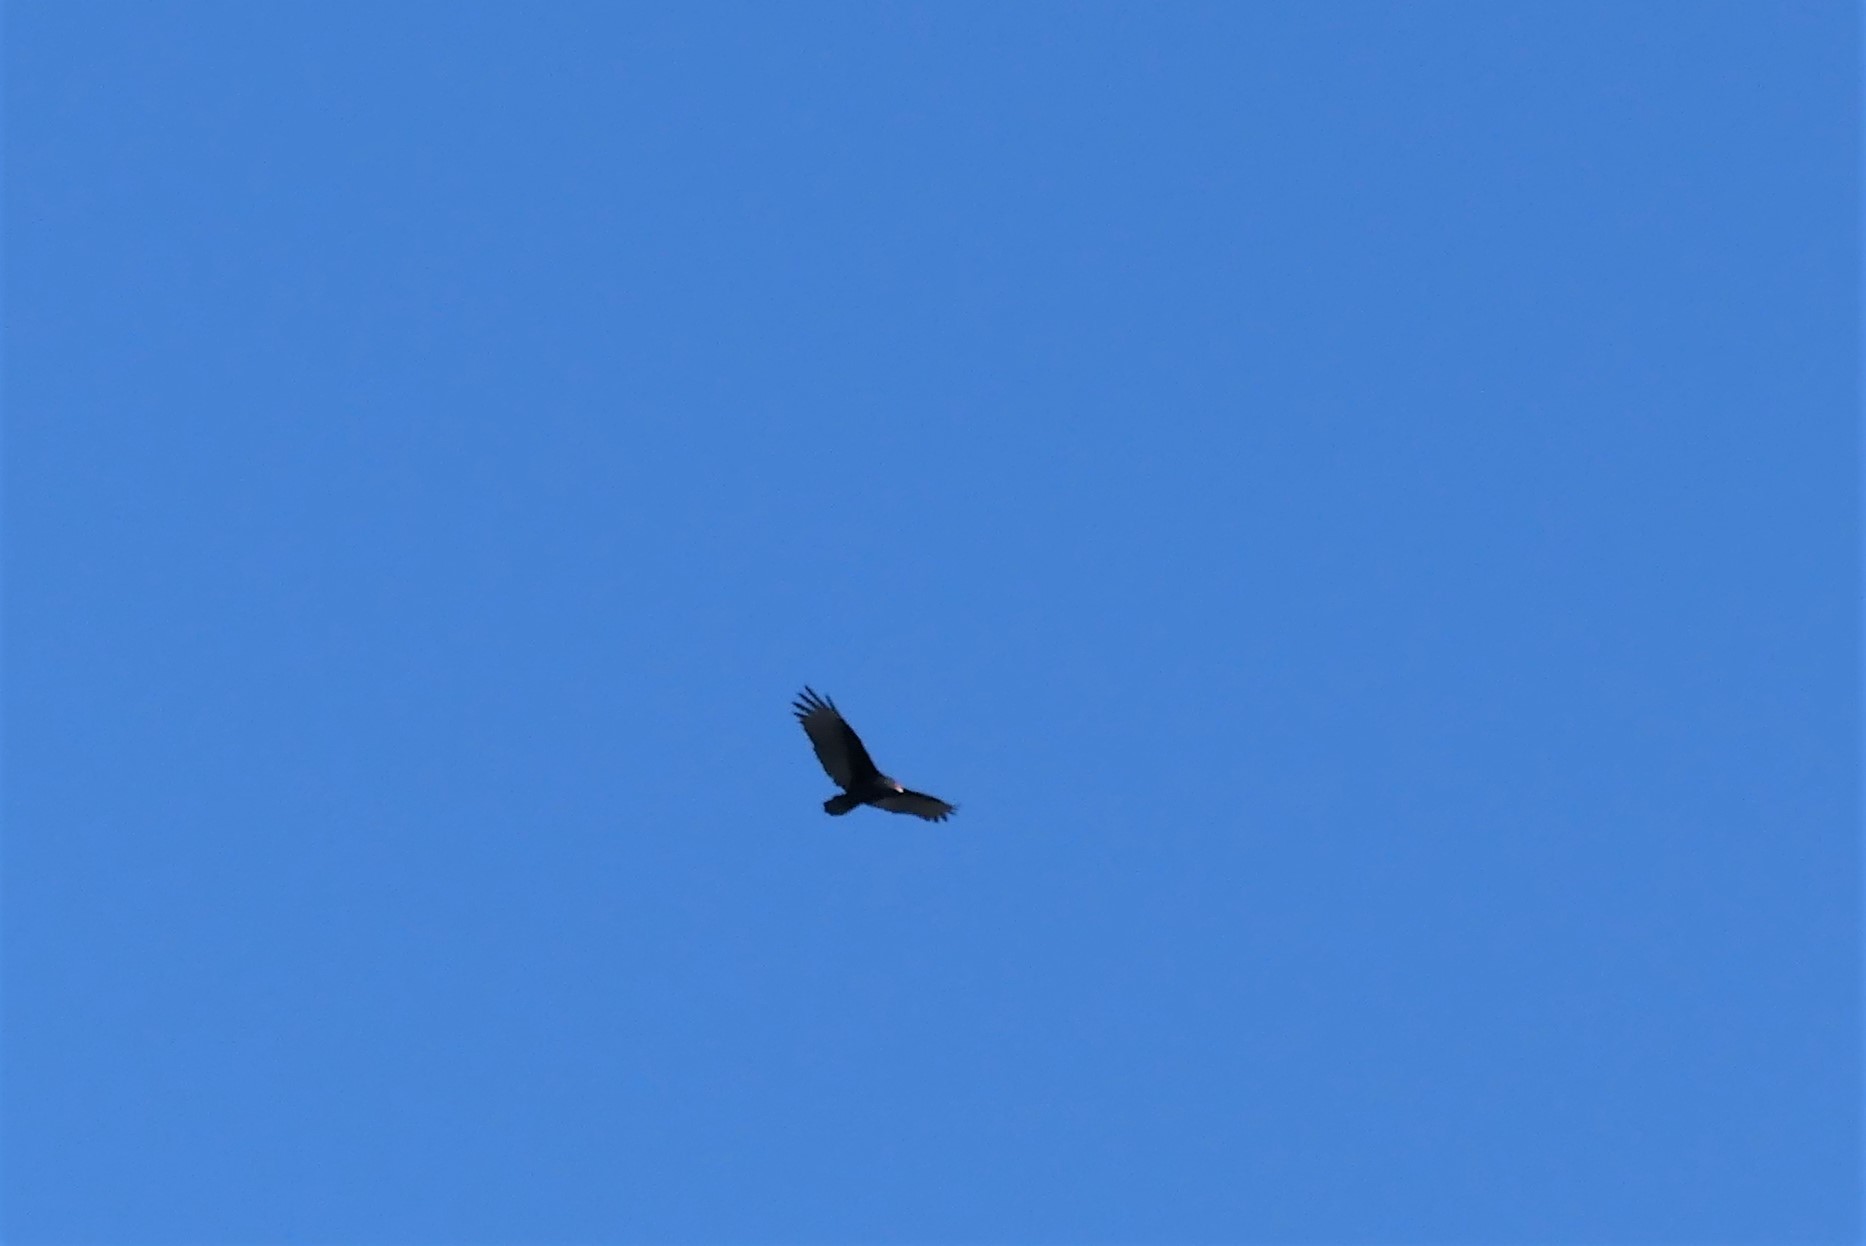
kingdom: Animalia
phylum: Chordata
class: Aves
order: Accipitriformes
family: Cathartidae
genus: Cathartes
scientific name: Cathartes aura
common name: Turkey vulture
